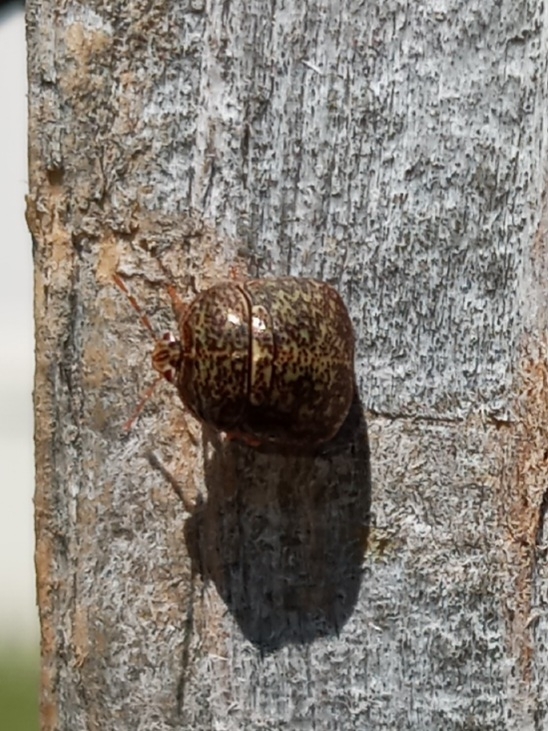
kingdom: Animalia
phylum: Arthropoda
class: Insecta
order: Hemiptera
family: Plataspidae
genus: Megacopta
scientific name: Megacopta cribraria
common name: Bean plataspid
